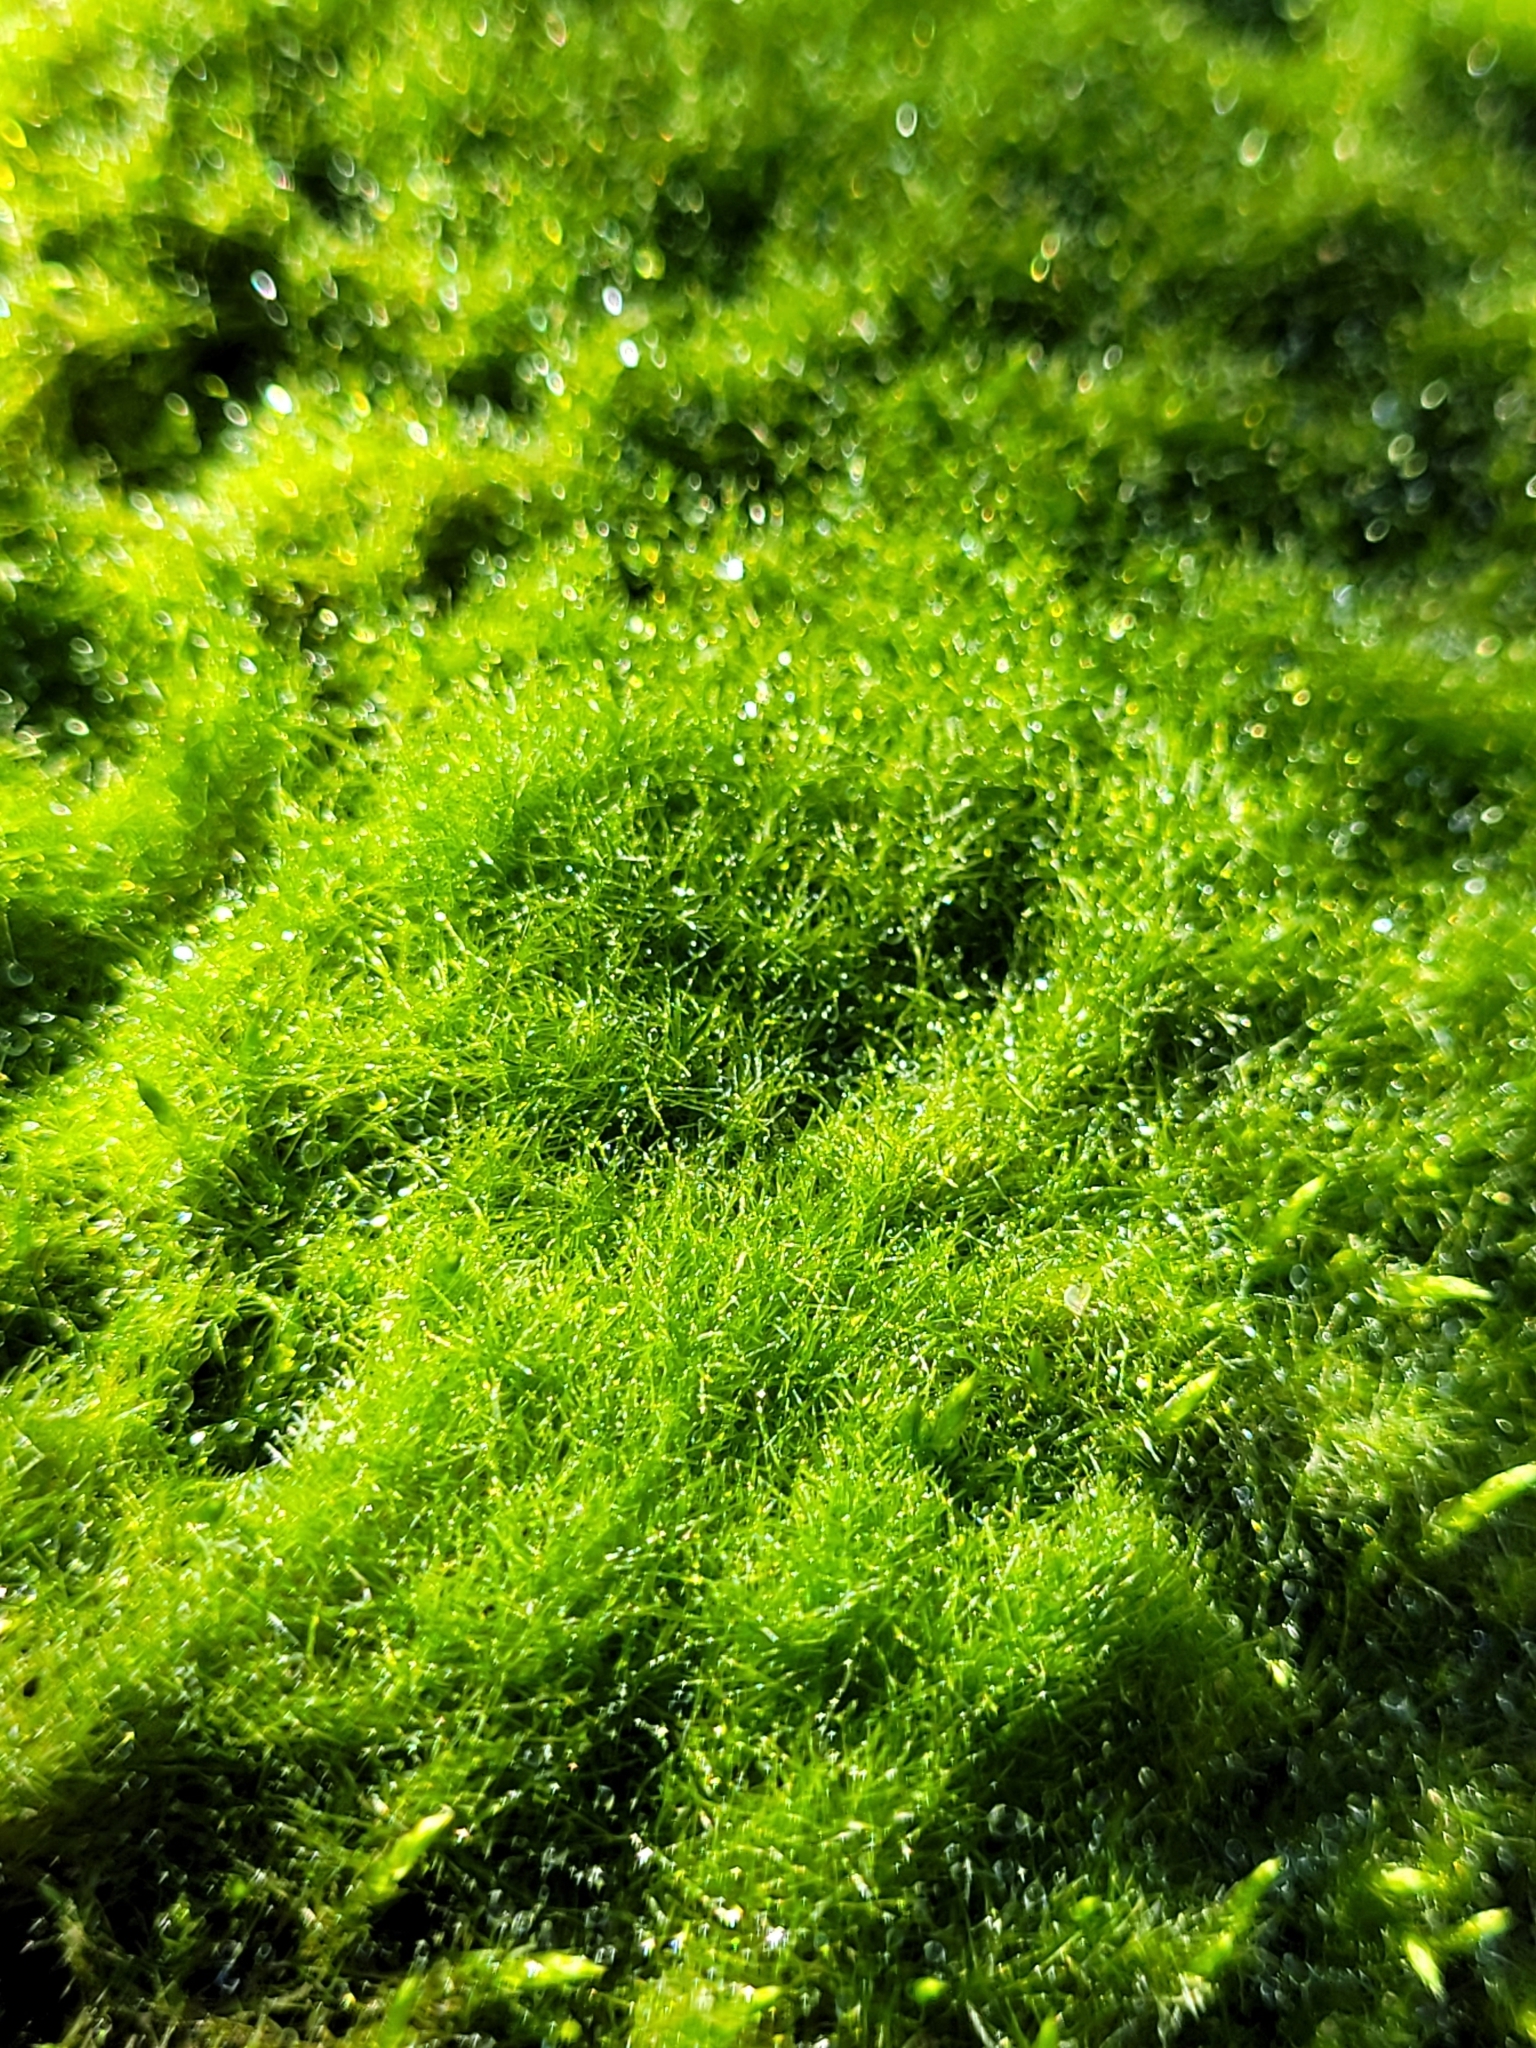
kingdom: Chromista
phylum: Ochrophyta
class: Xanthophyceae
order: Vaucheriales
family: Vaucheriaceae
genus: Vaucheria
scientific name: Vaucheria
